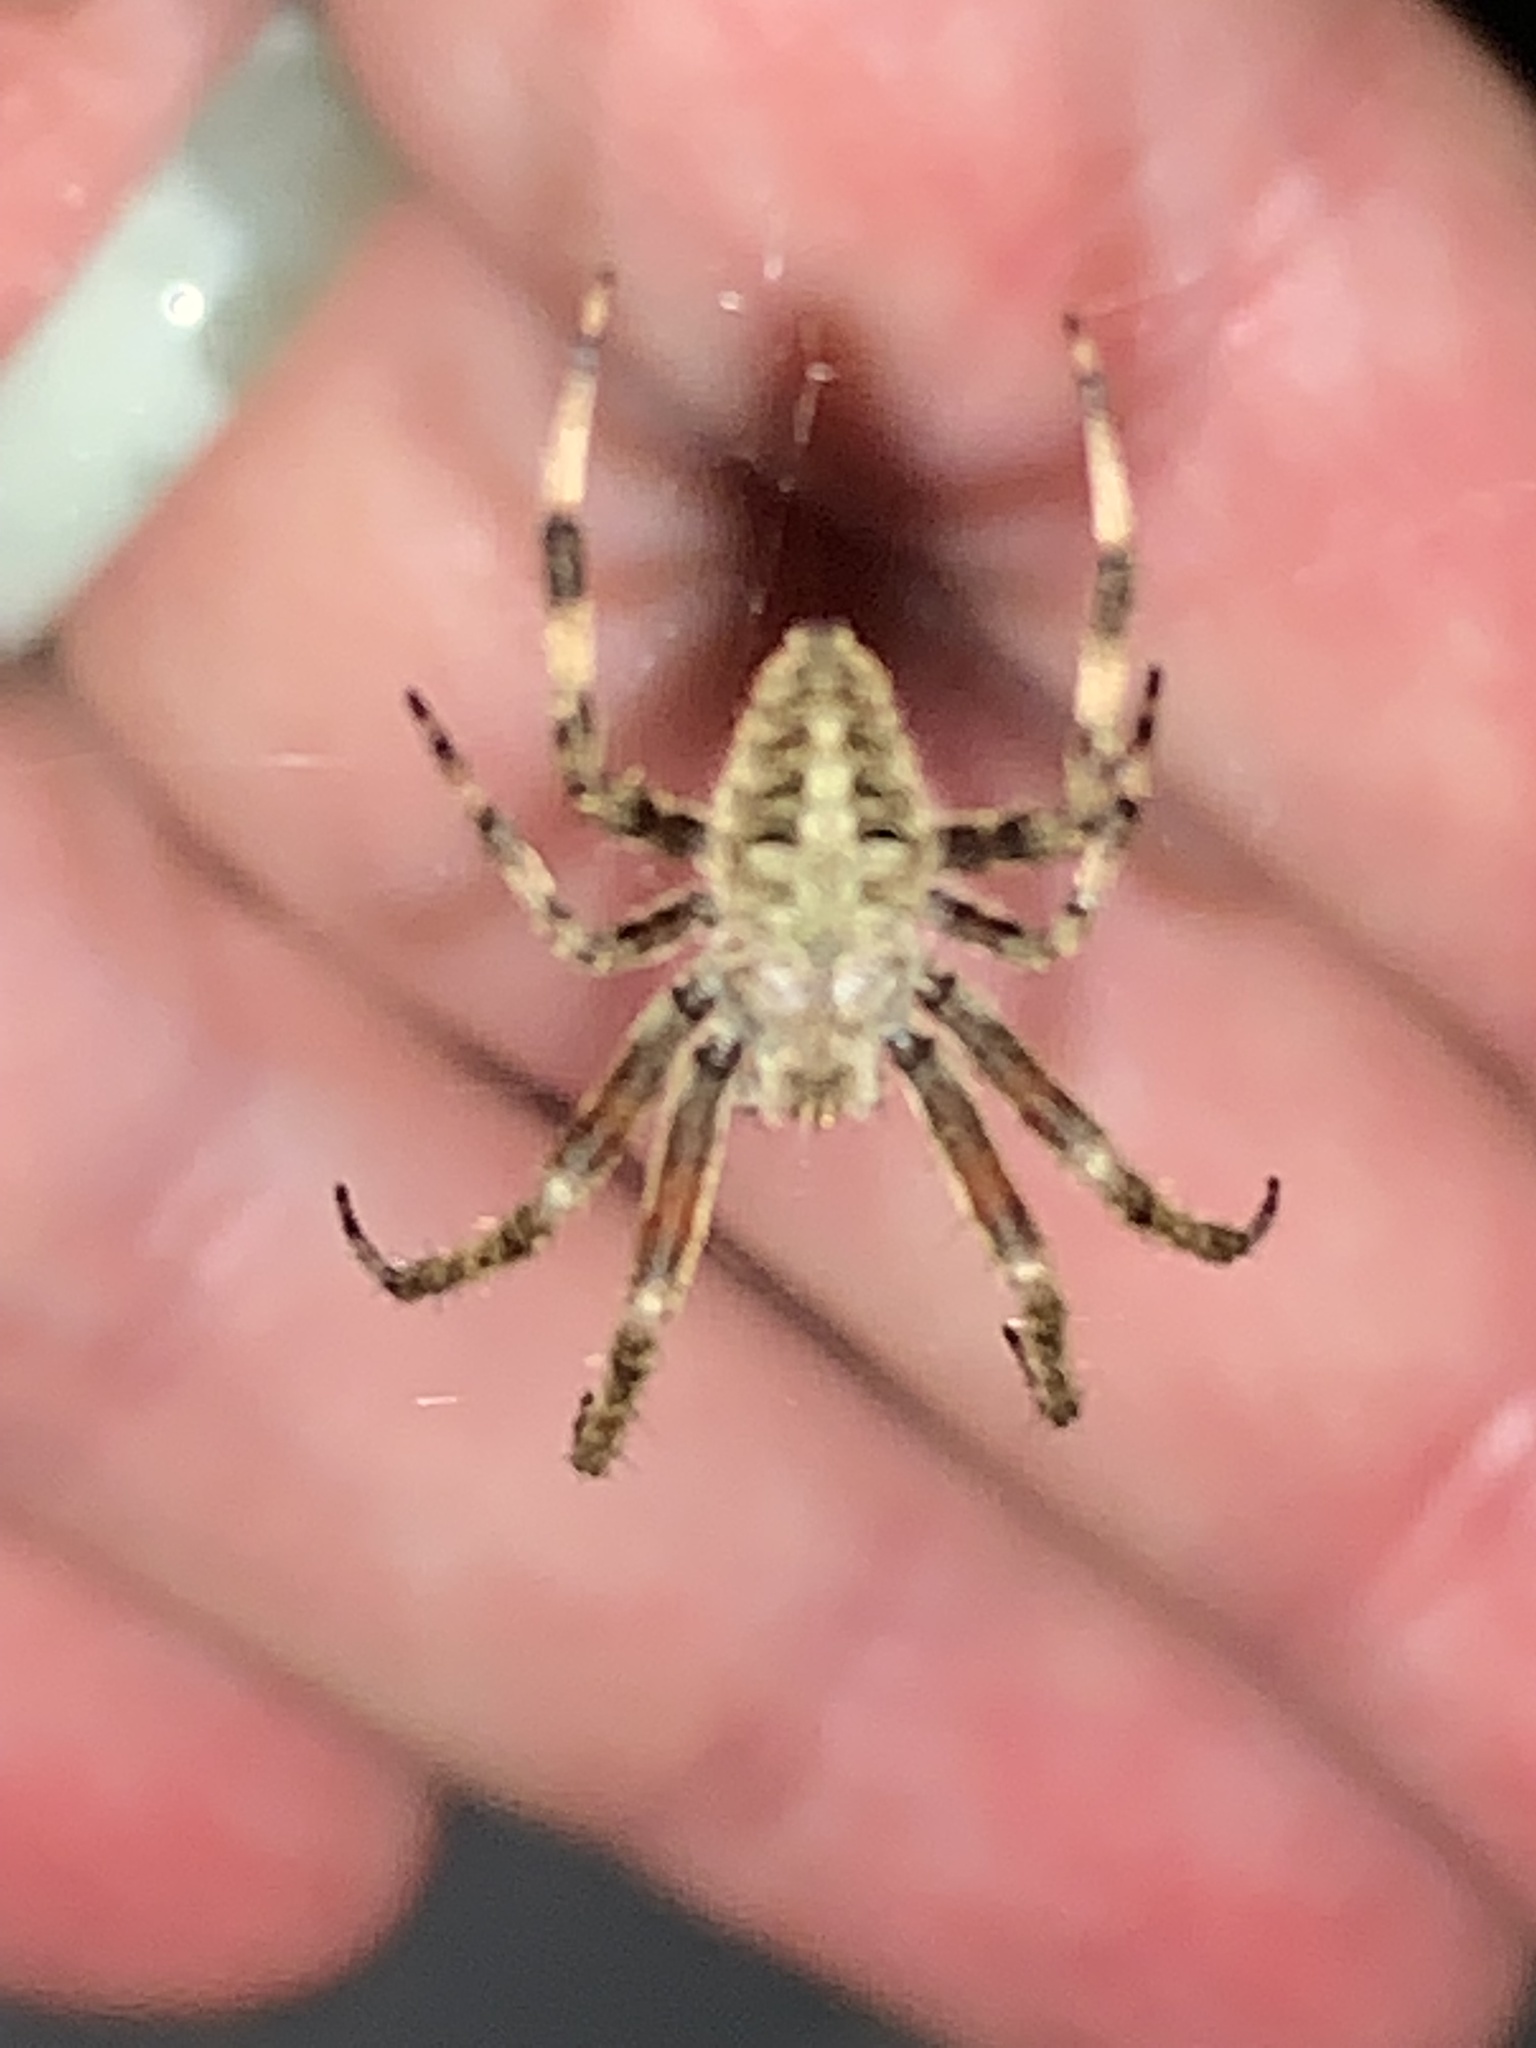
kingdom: Animalia
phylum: Arthropoda
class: Arachnida
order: Araneae
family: Araneidae
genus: Neoscona
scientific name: Neoscona arabesca
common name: Orb weavers
